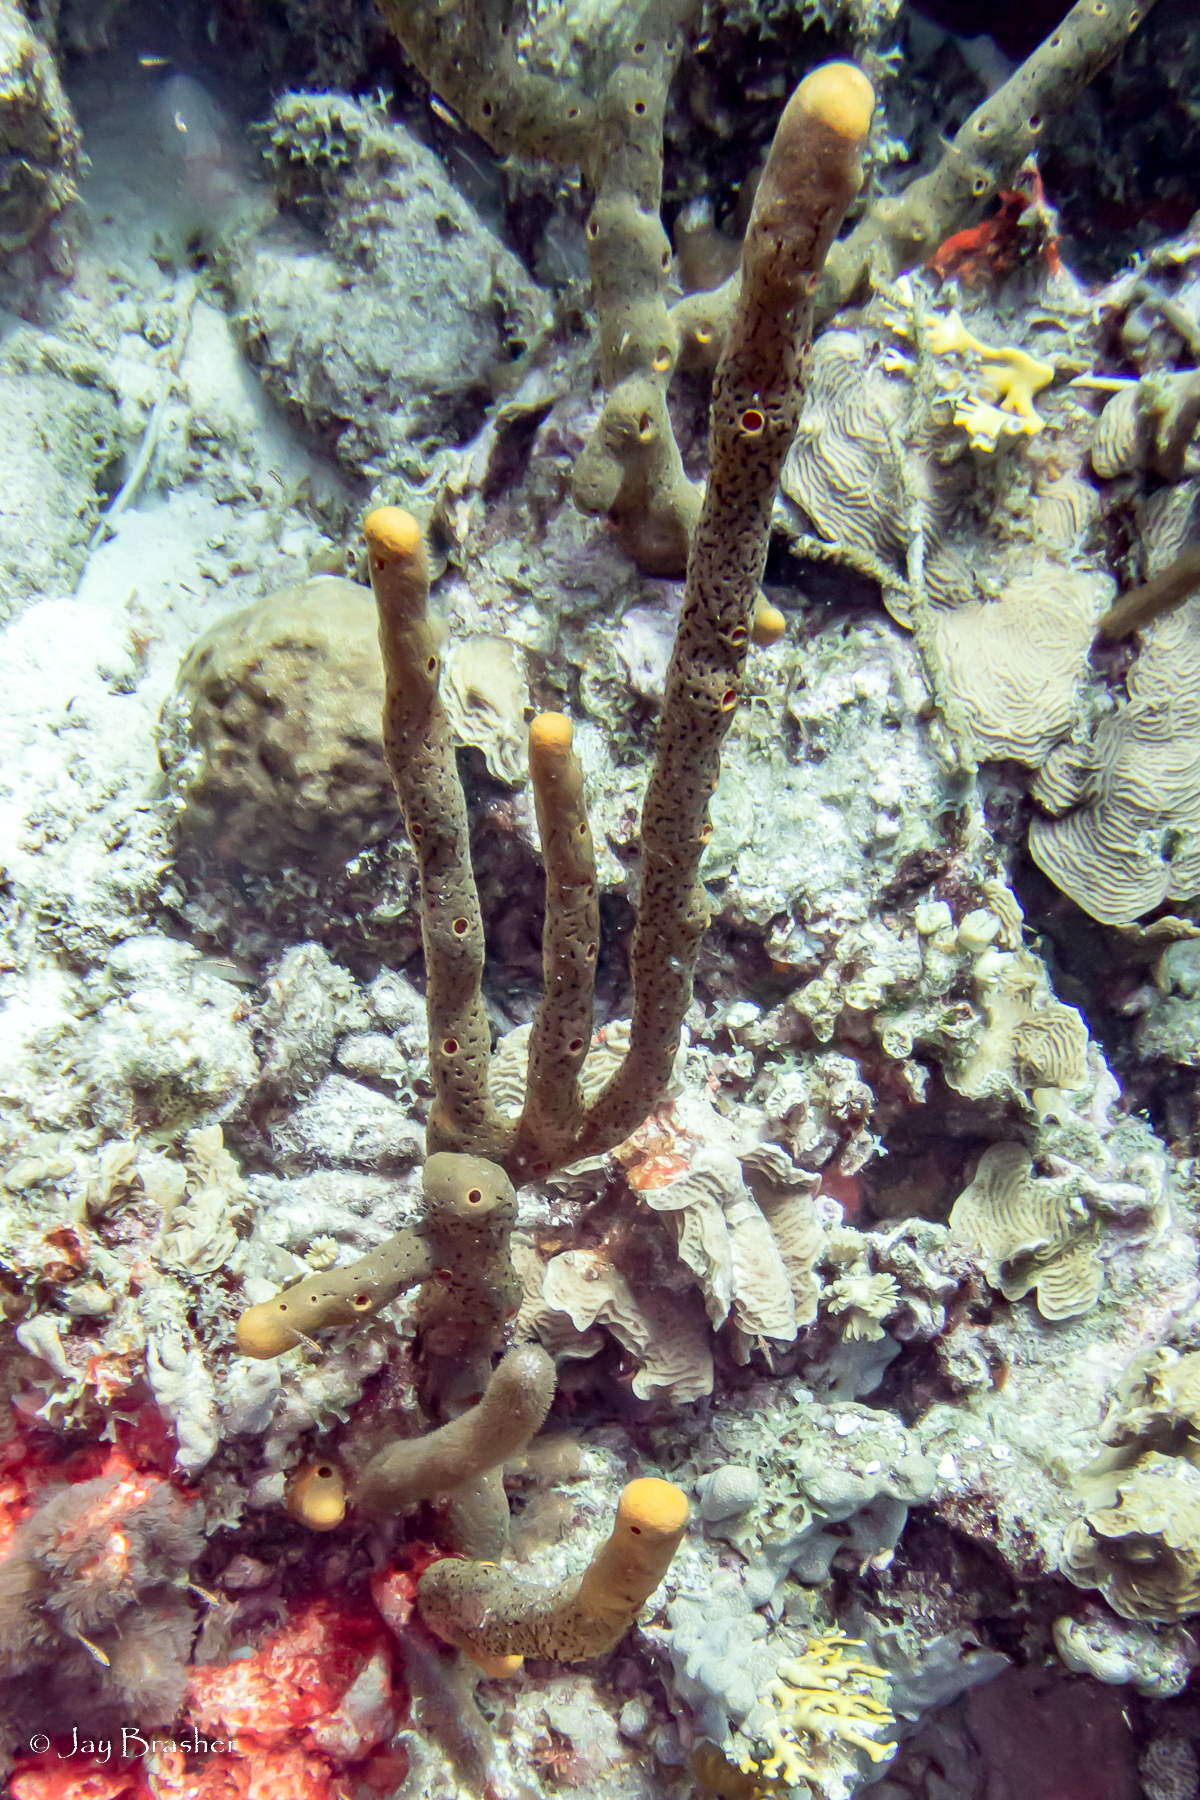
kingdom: Animalia
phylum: Porifera
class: Demospongiae
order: Agelasida
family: Agelasidae
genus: Agelas
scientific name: Agelas conifera
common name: Brown tube sponge
